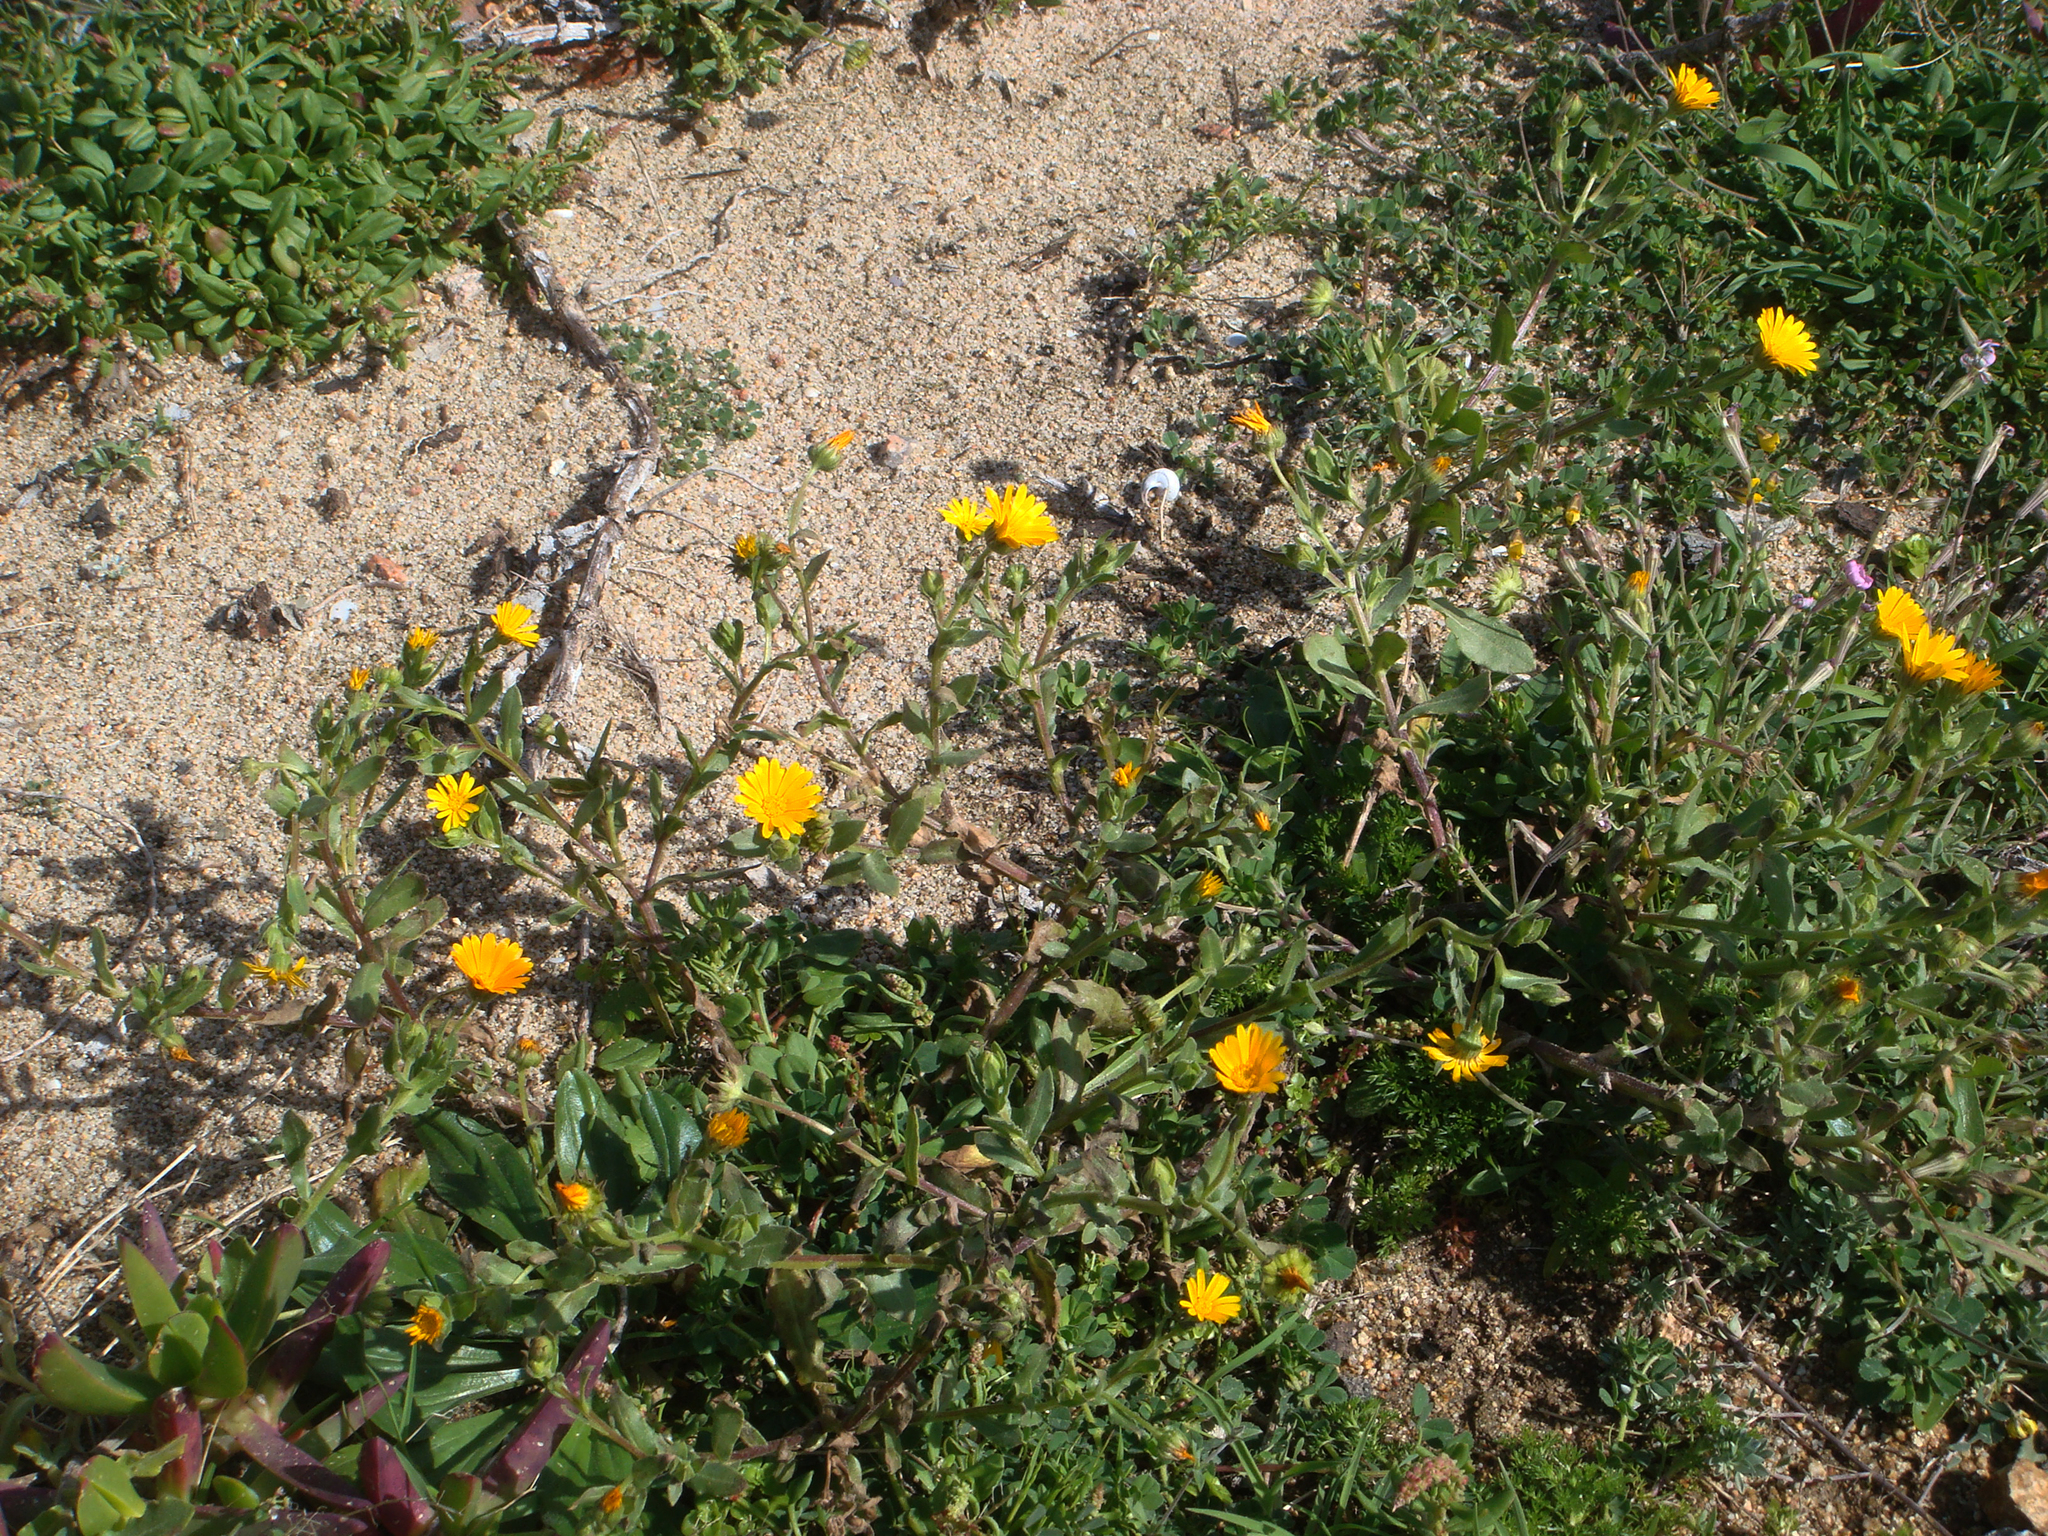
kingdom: Plantae
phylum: Tracheophyta
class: Magnoliopsida
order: Asterales
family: Asteraceae
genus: Calendula
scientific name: Calendula arvensis
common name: Field marigold
